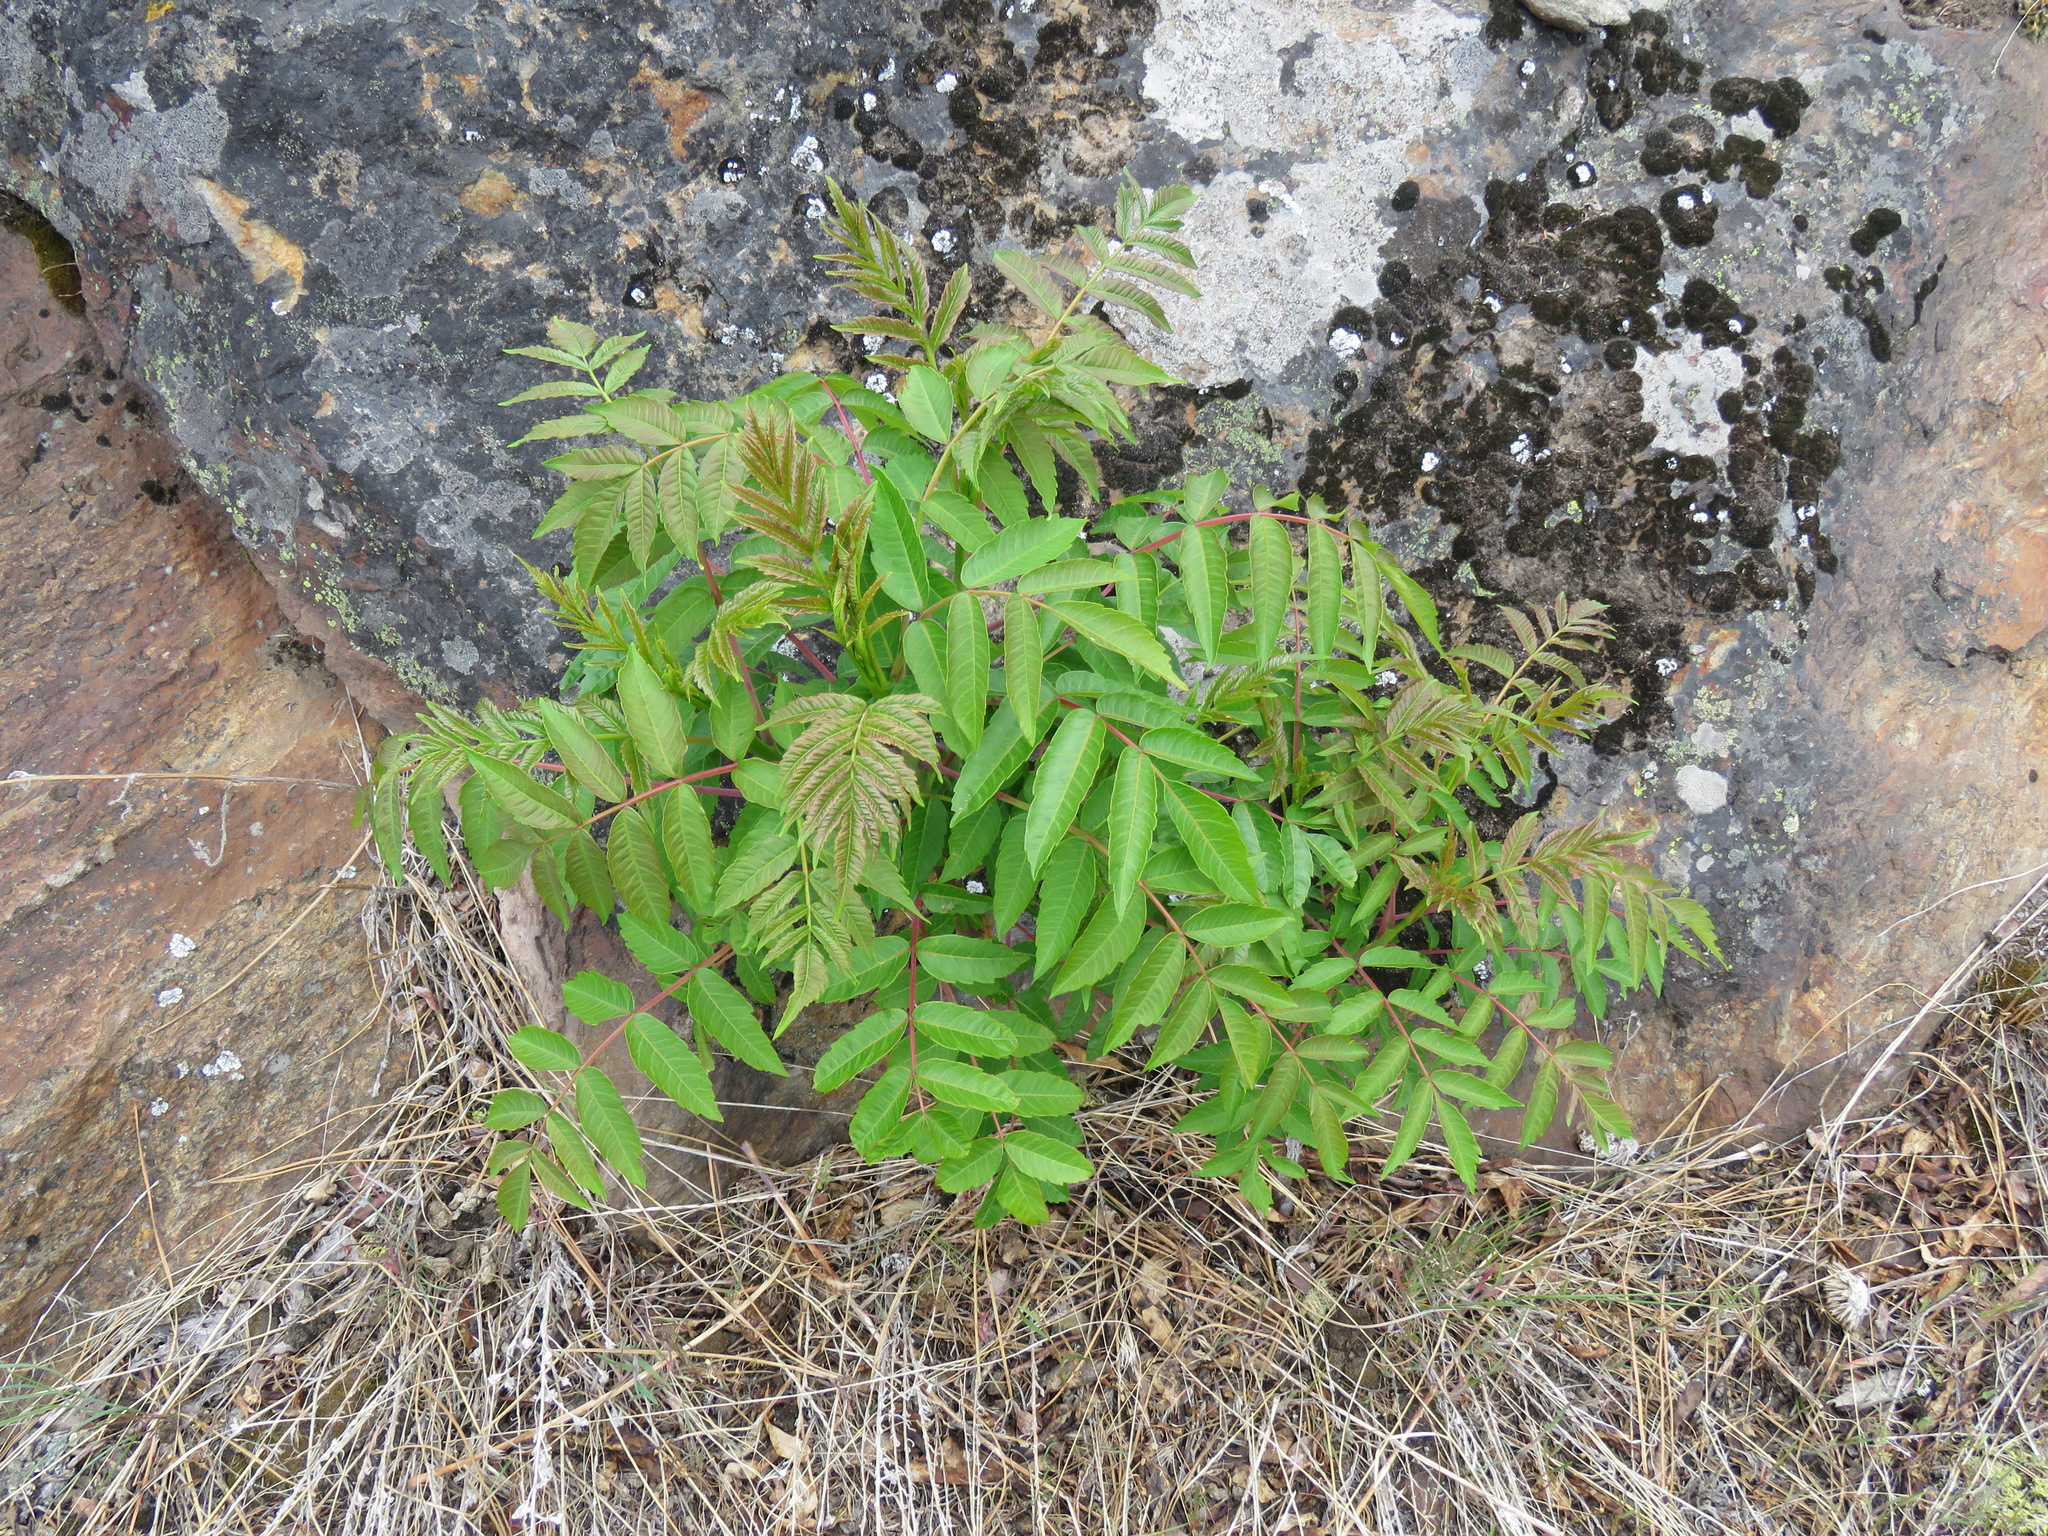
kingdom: Plantae
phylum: Tracheophyta
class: Magnoliopsida
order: Sapindales
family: Anacardiaceae
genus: Rhus
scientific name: Rhus glabra
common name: Scarlet sumac
